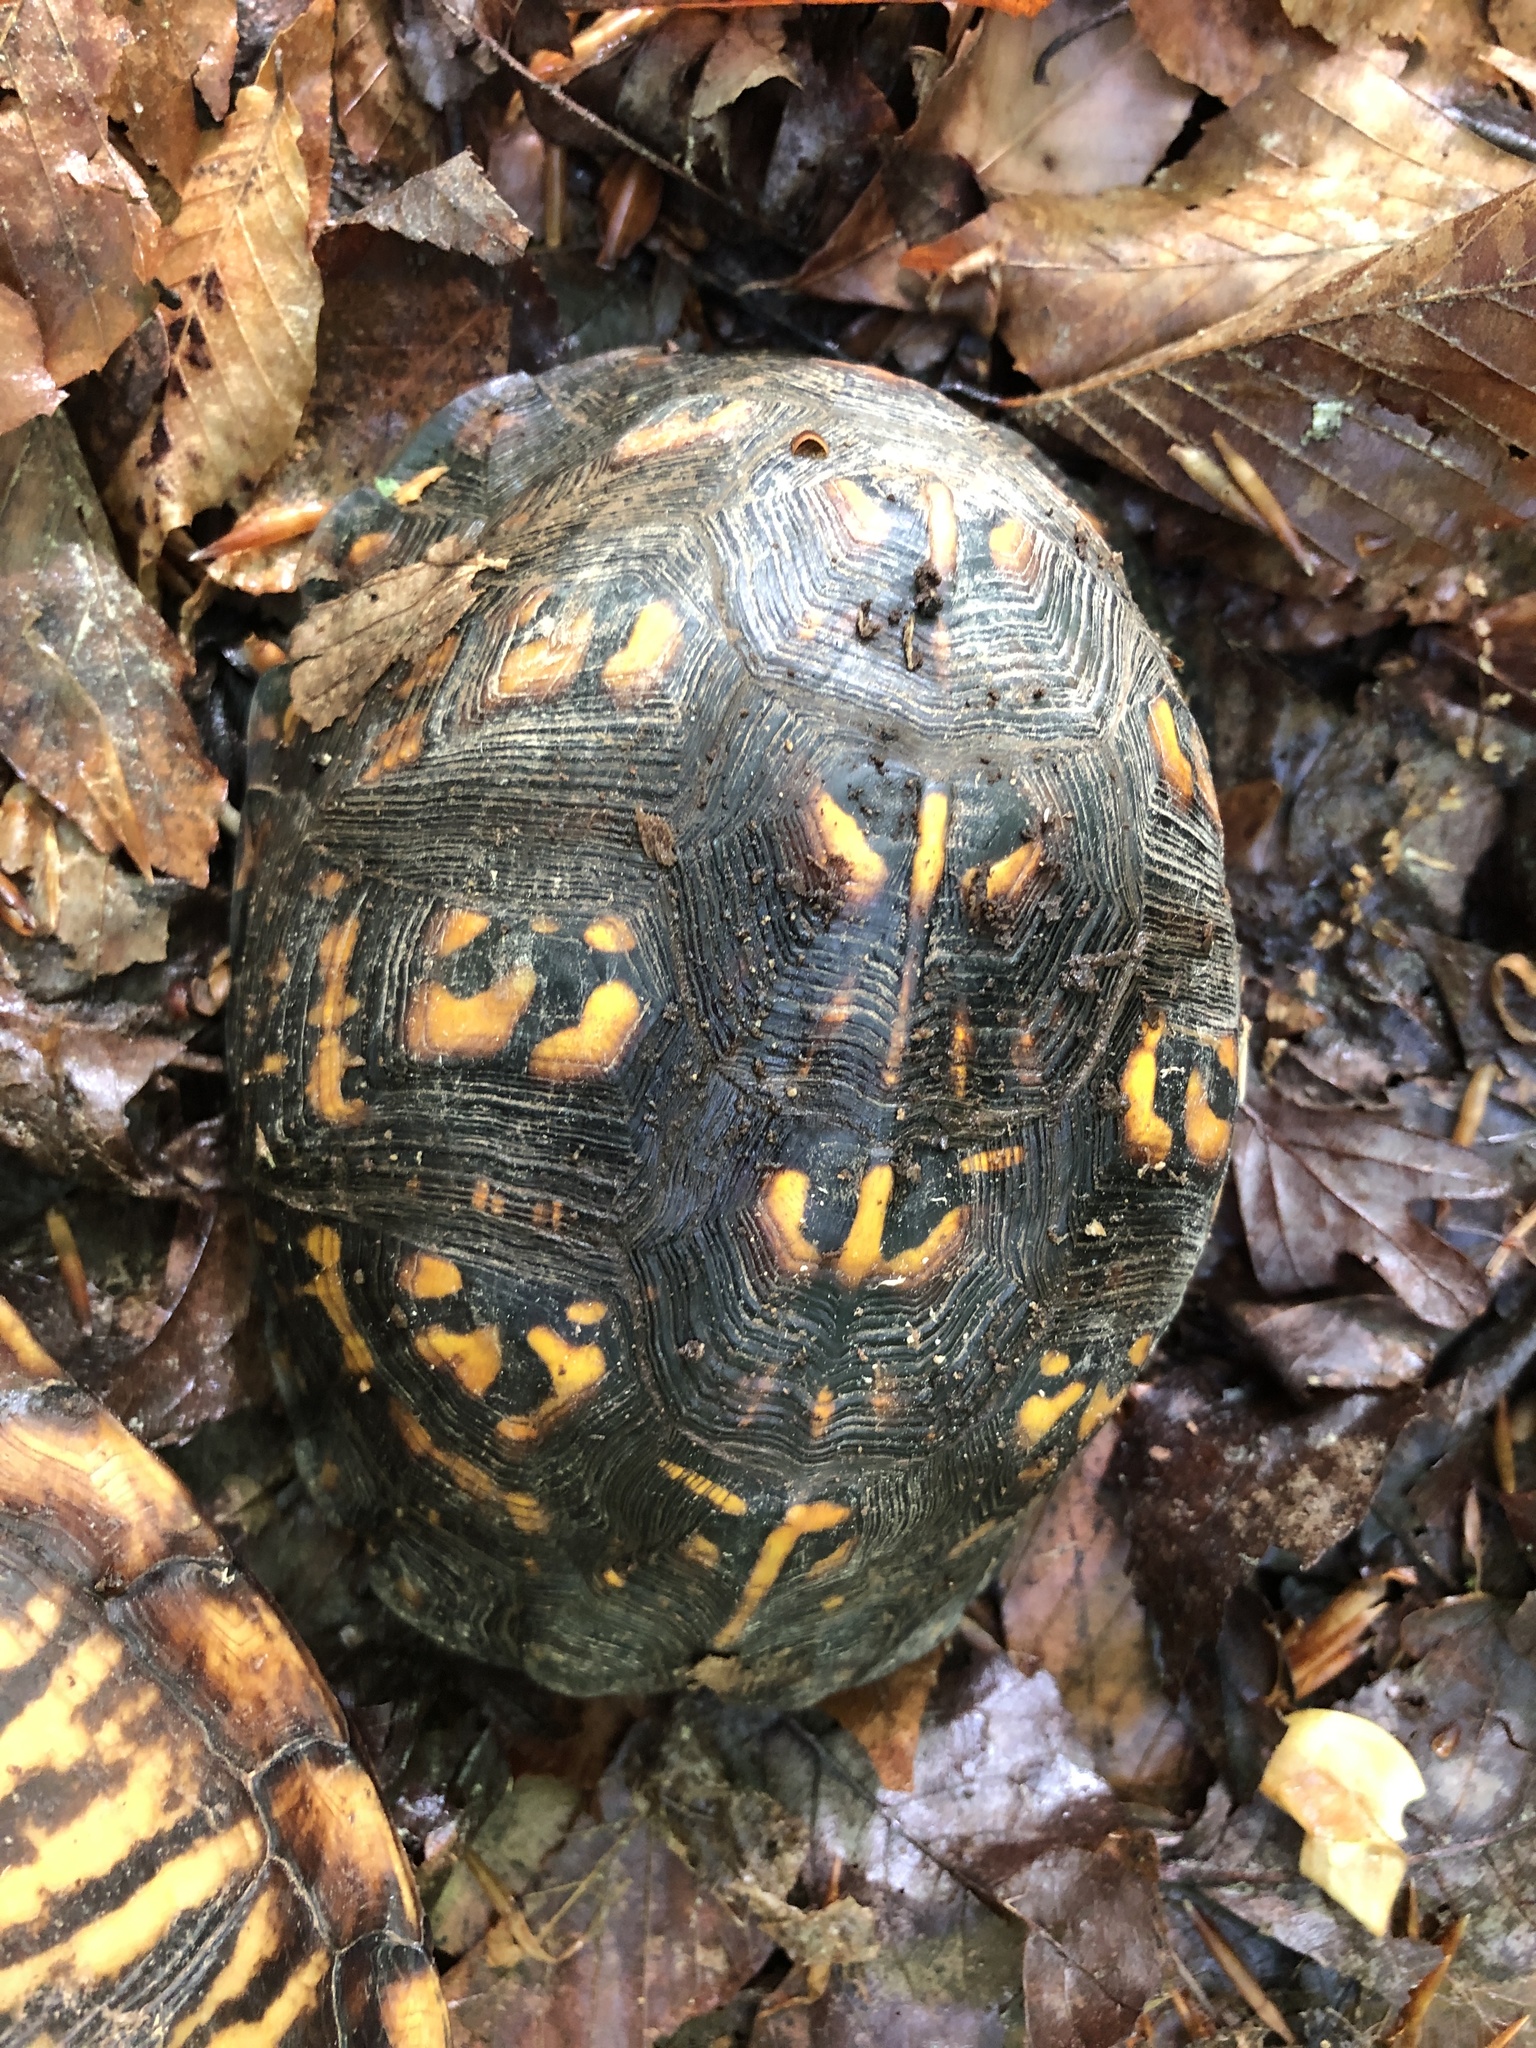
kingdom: Animalia
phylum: Chordata
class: Testudines
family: Emydidae
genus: Terrapene
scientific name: Terrapene carolina
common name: Common box turtle
